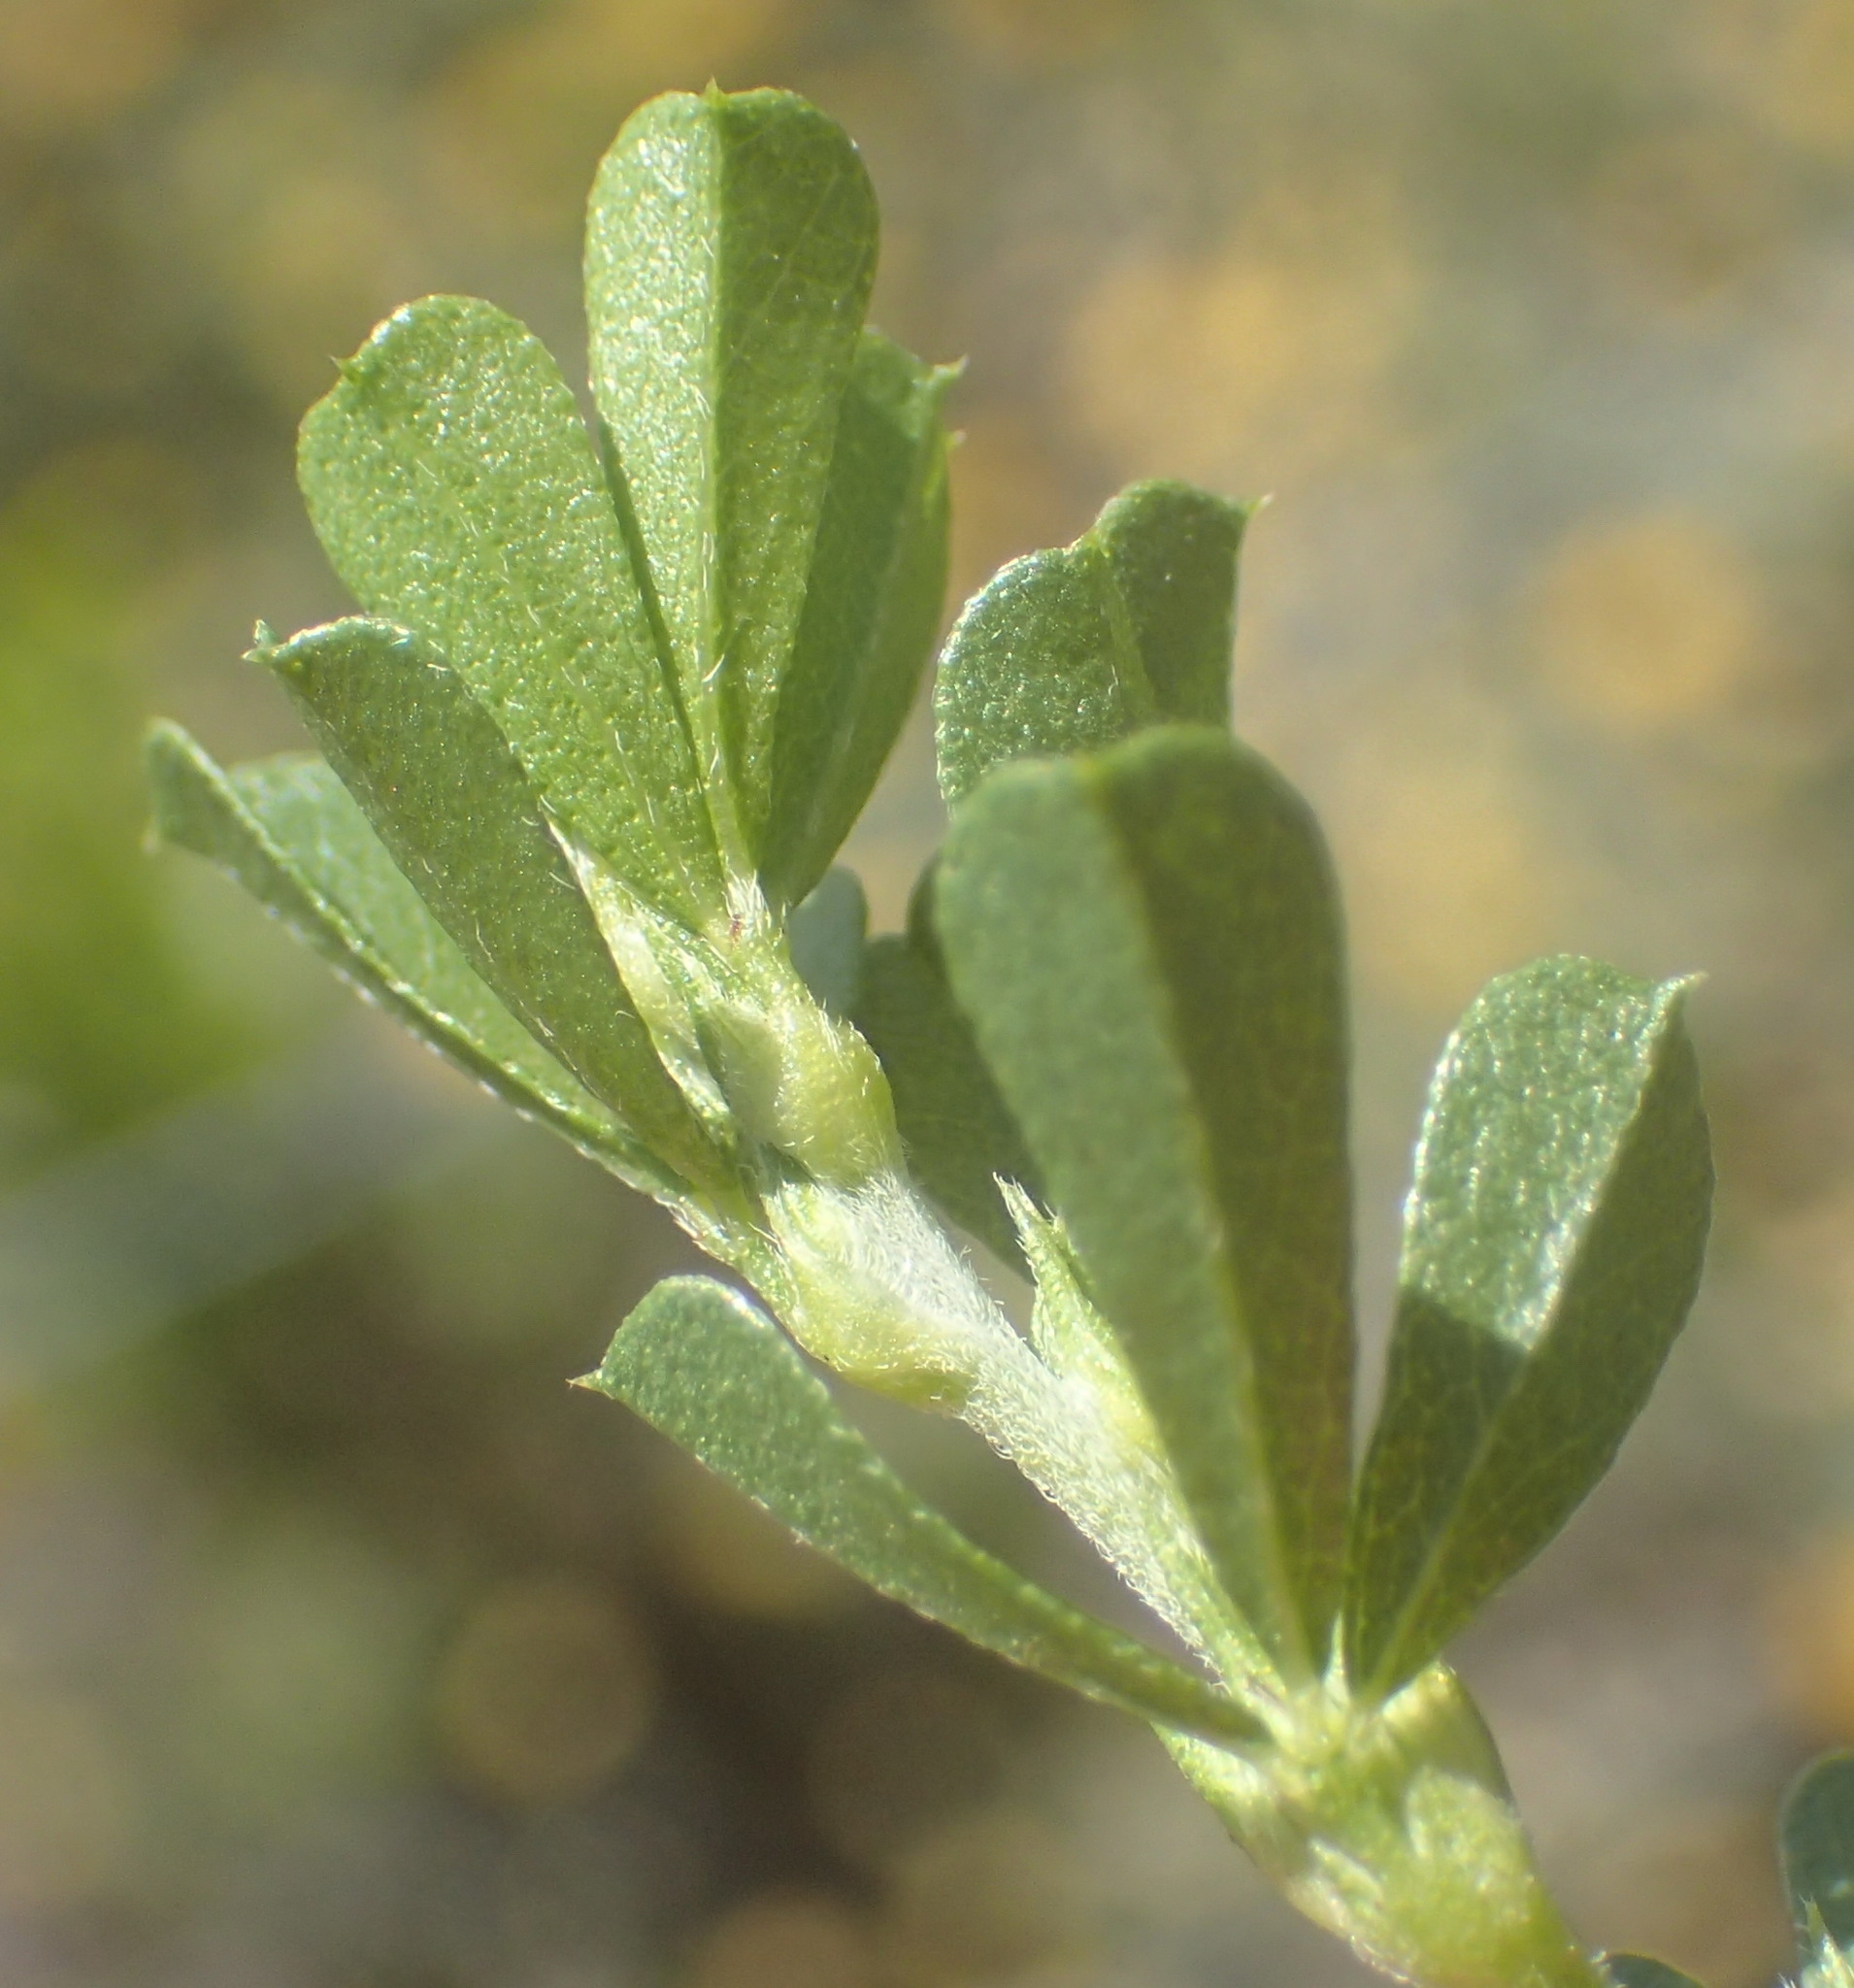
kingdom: Plantae
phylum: Tracheophyta
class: Magnoliopsida
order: Fabales
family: Fabaceae
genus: Psoralea
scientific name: Psoralea
